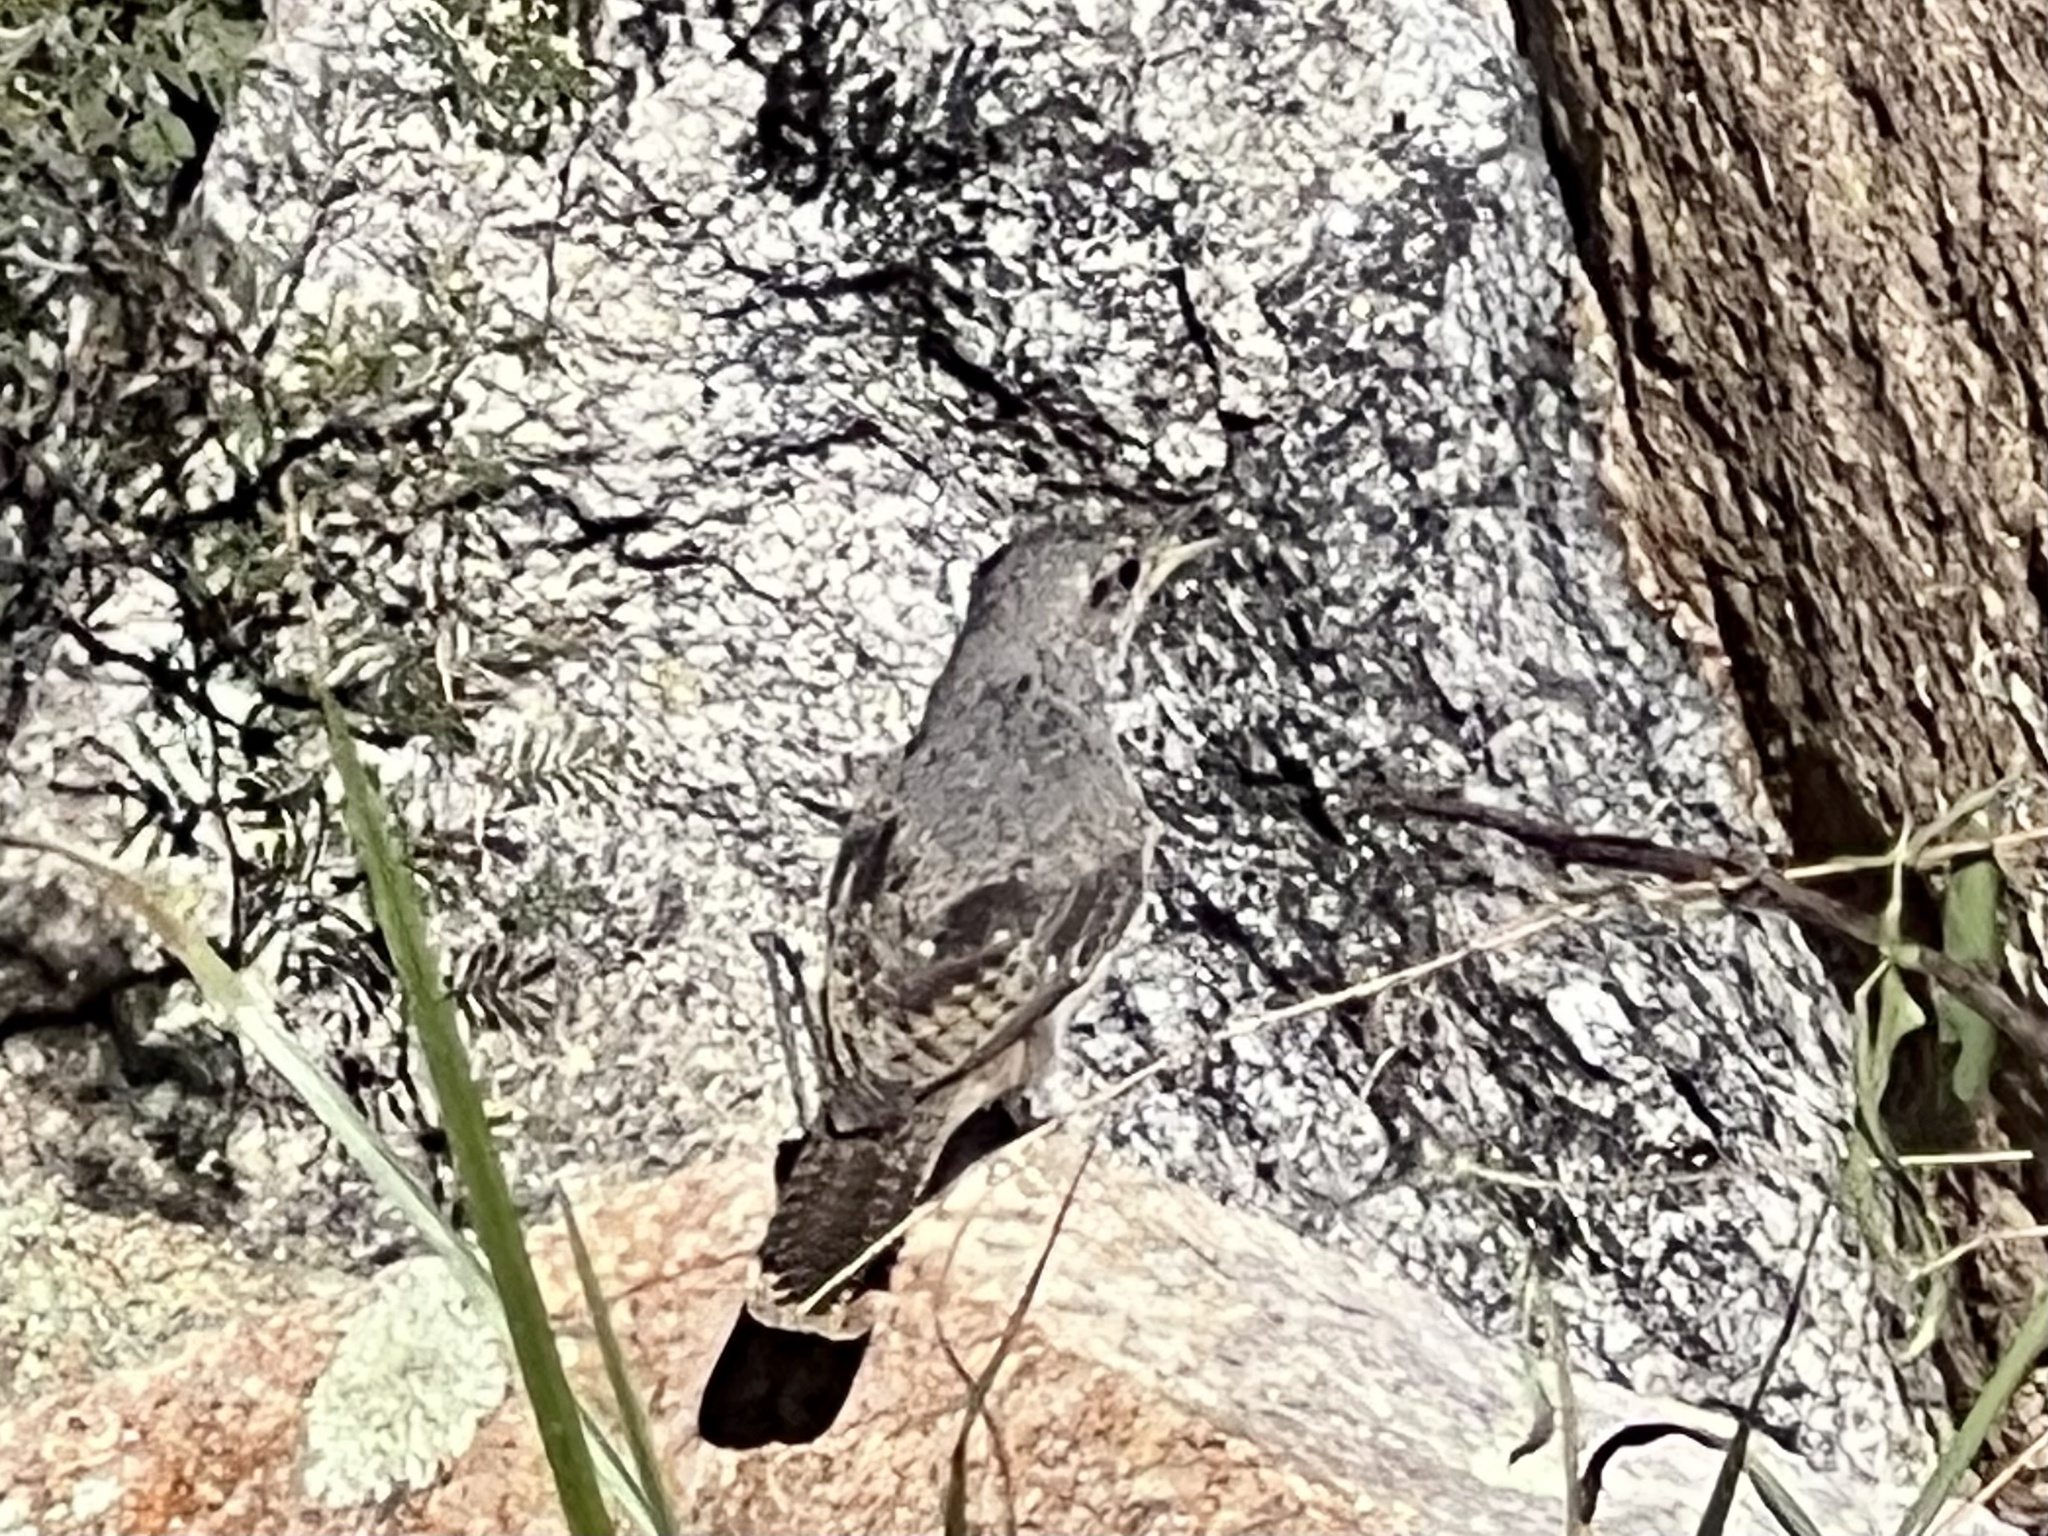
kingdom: Animalia
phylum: Chordata
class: Aves
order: Passeriformes
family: Troglodytidae
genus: Salpinctes
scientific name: Salpinctes obsoletus
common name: Rock wren
